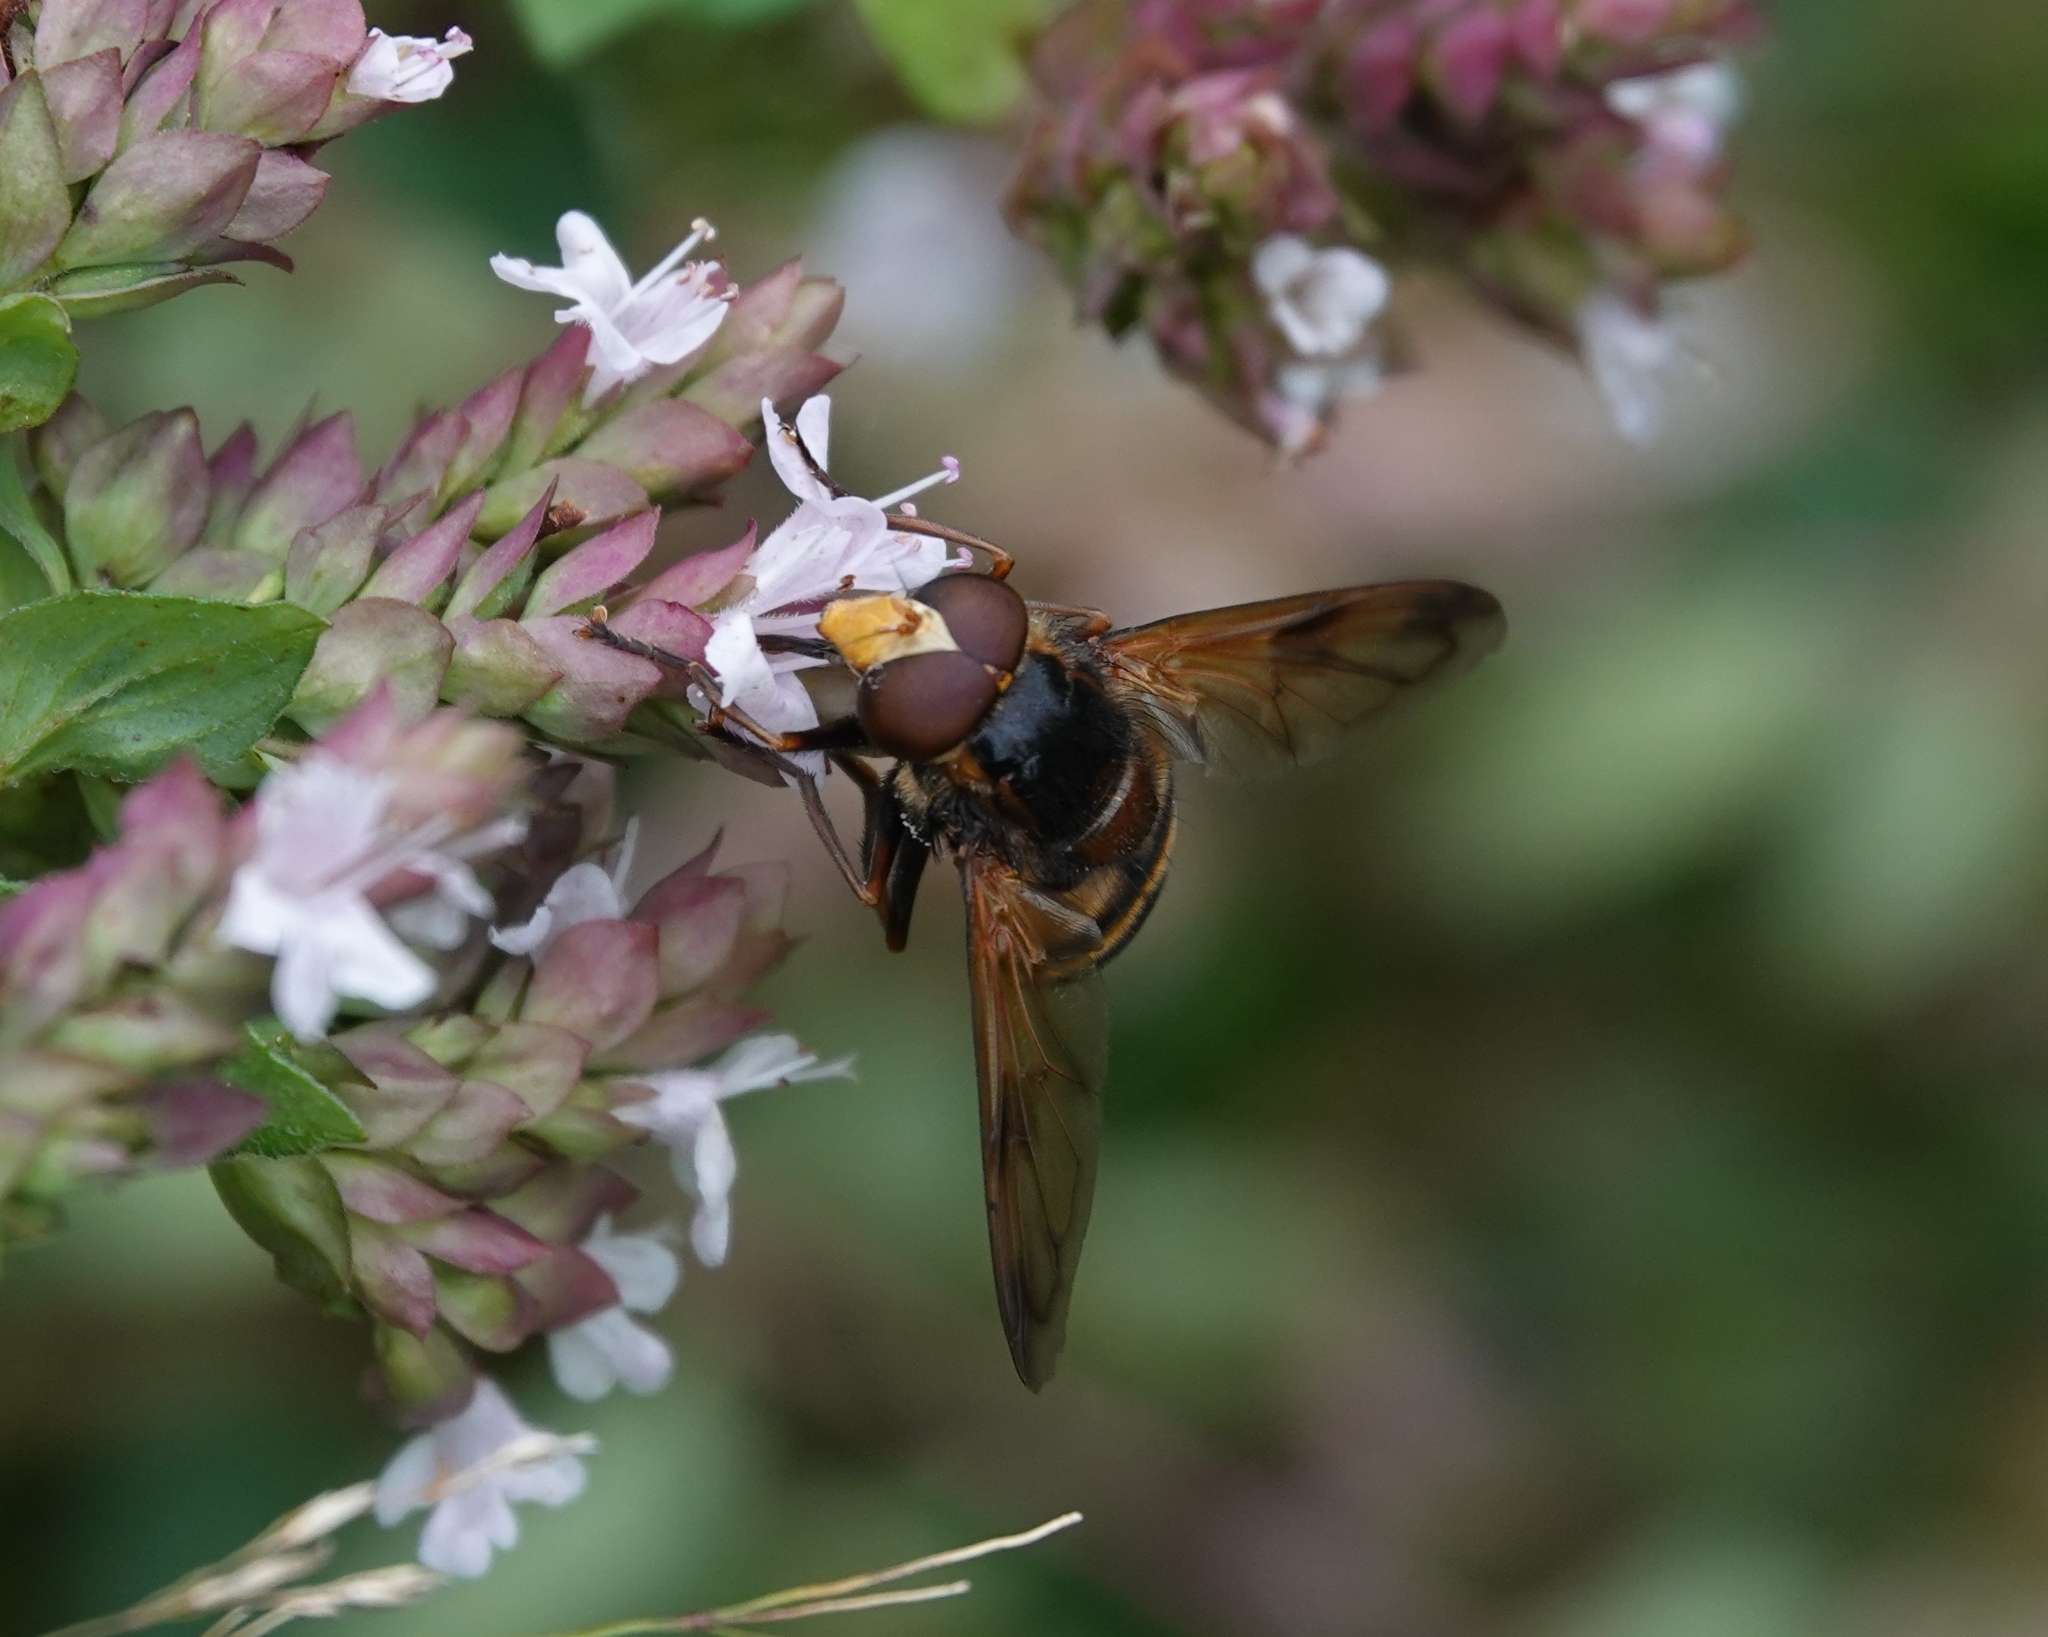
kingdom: Animalia
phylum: Arthropoda
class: Insecta
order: Diptera
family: Syrphidae
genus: Volucella
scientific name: Volucella zonaria
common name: Hornet hoverfly
